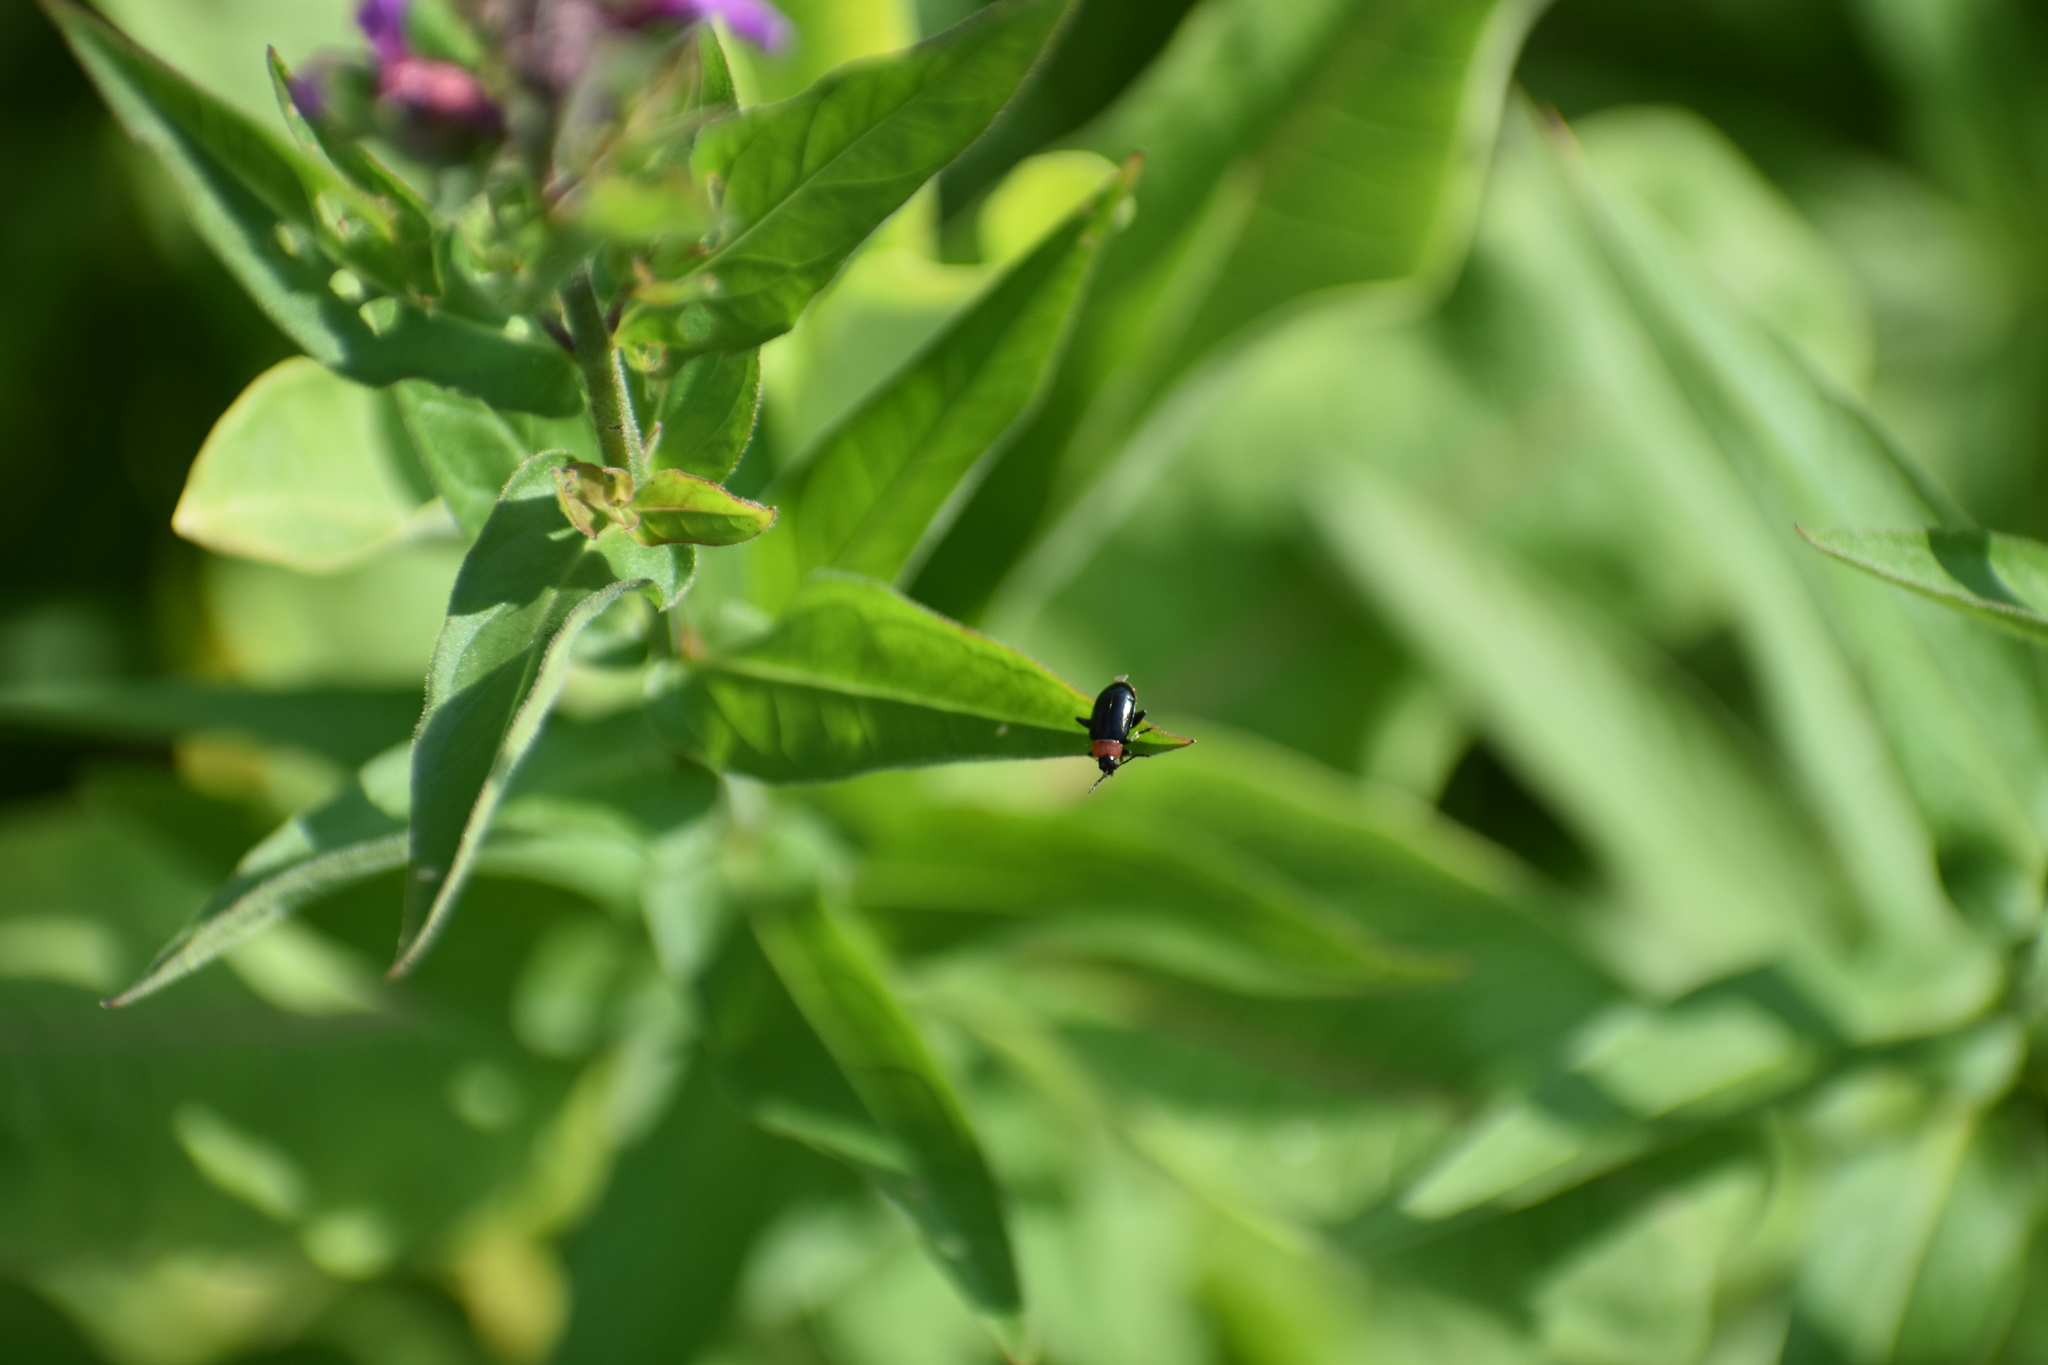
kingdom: Animalia
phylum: Arthropoda
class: Insecta
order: Coleoptera
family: Chrysomelidae
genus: Disonycha
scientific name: Disonycha xanthomelas
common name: Spinach flea beetle
